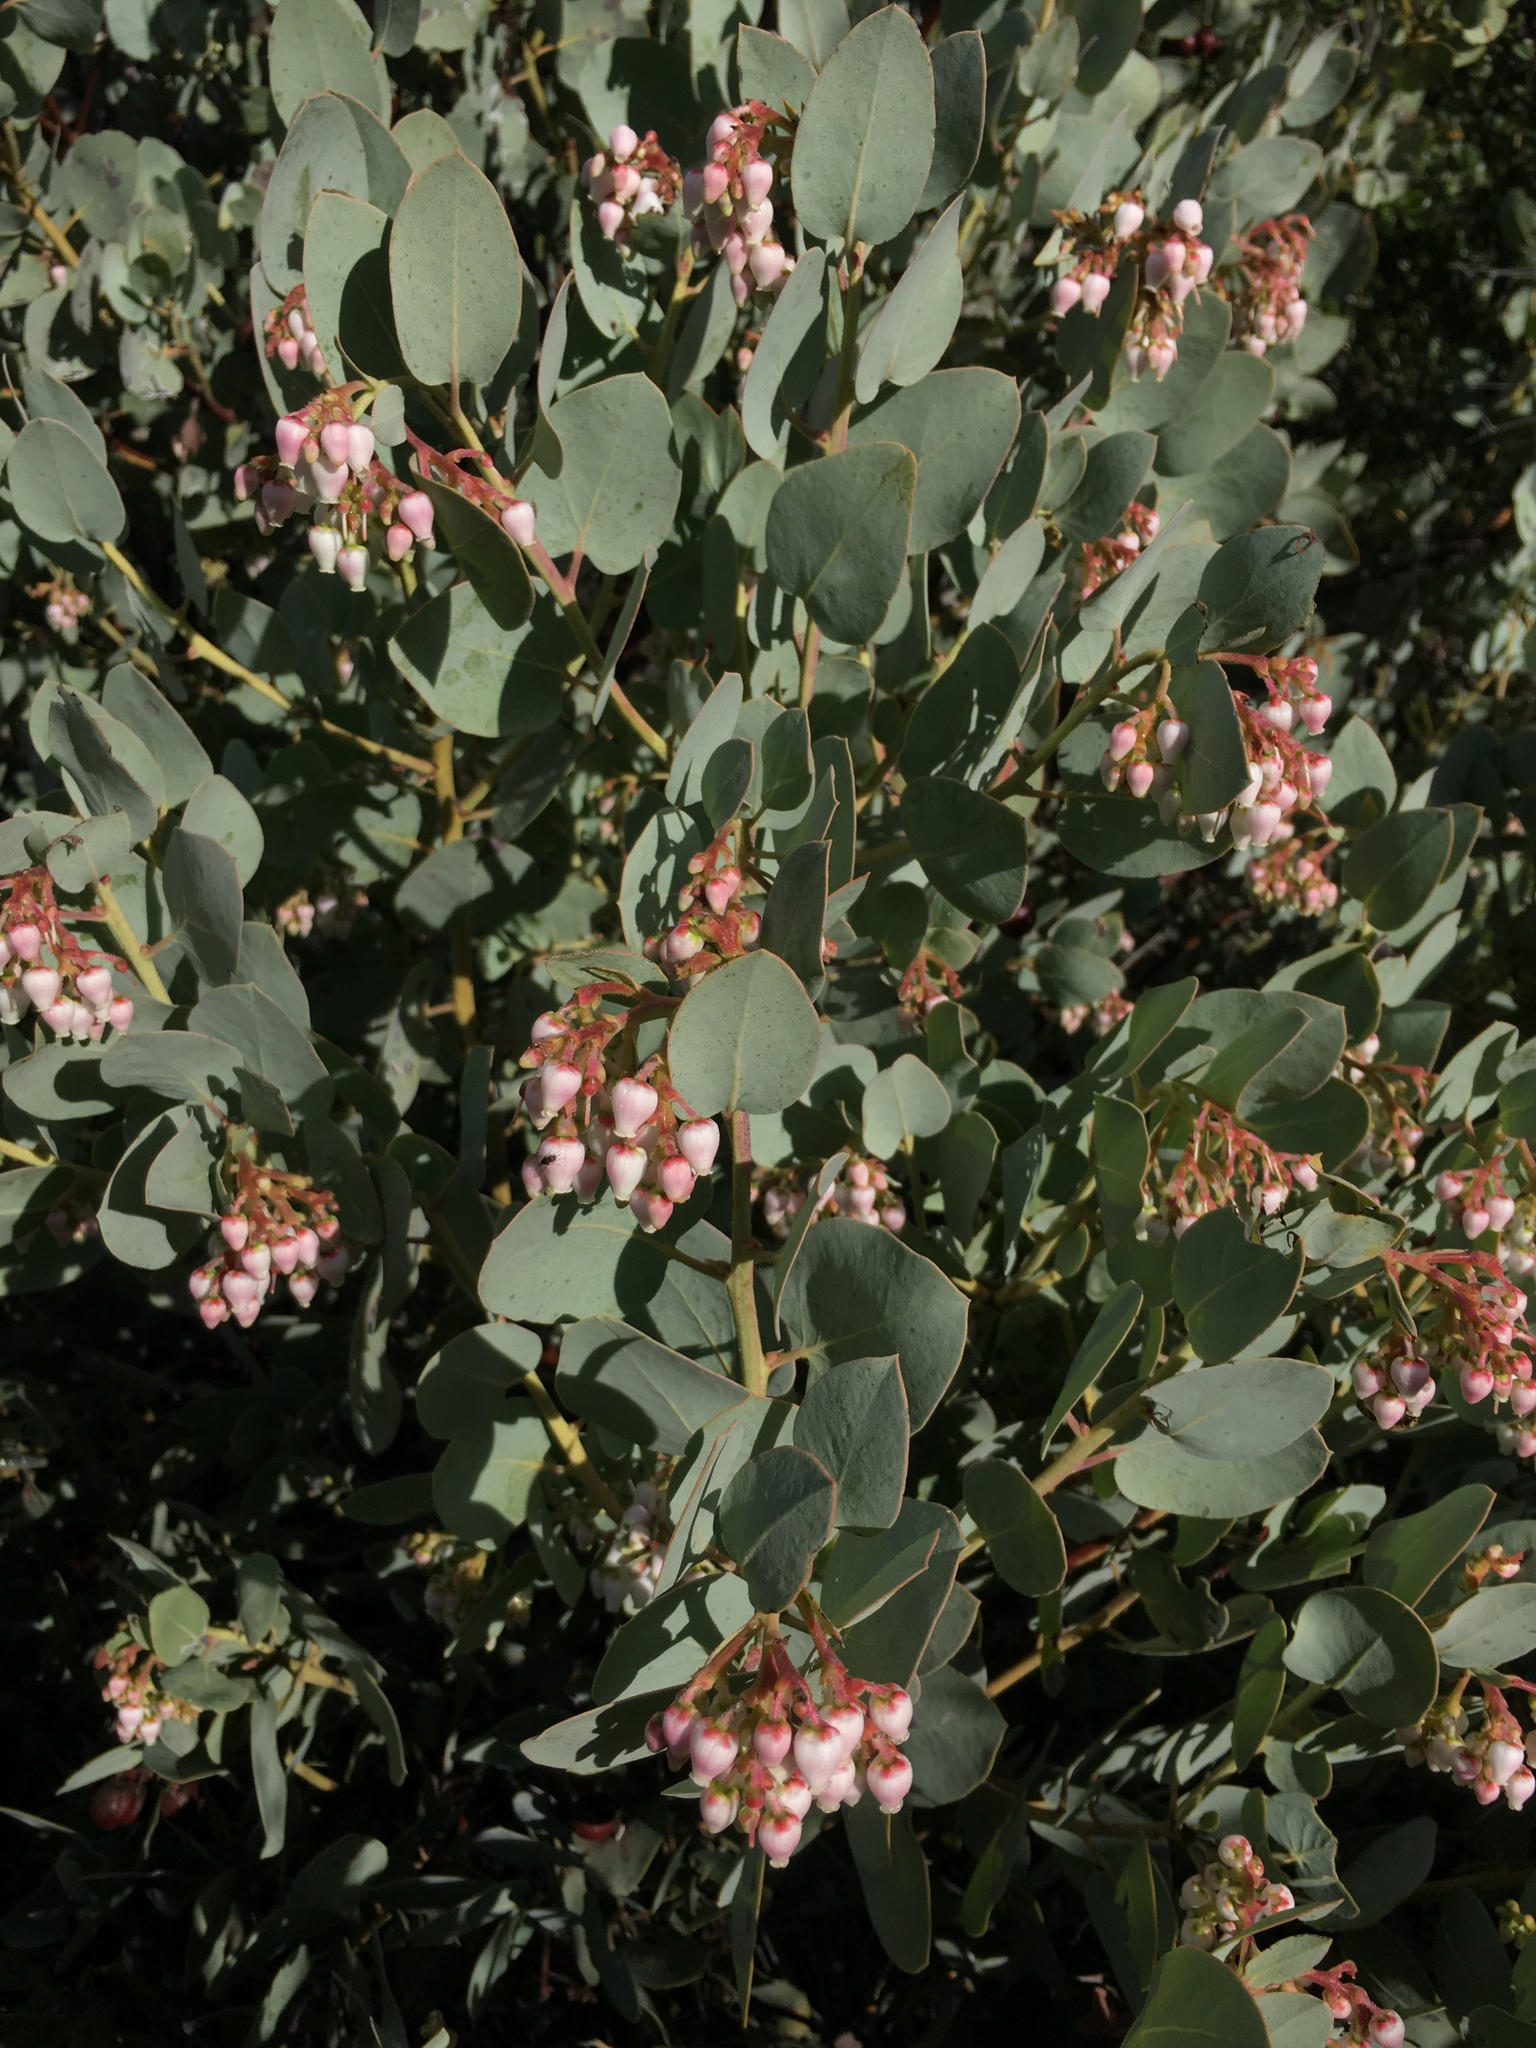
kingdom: Plantae
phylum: Tracheophyta
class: Magnoliopsida
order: Ericales
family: Ericaceae
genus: Arctostaphylos
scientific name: Arctostaphylos glauca
